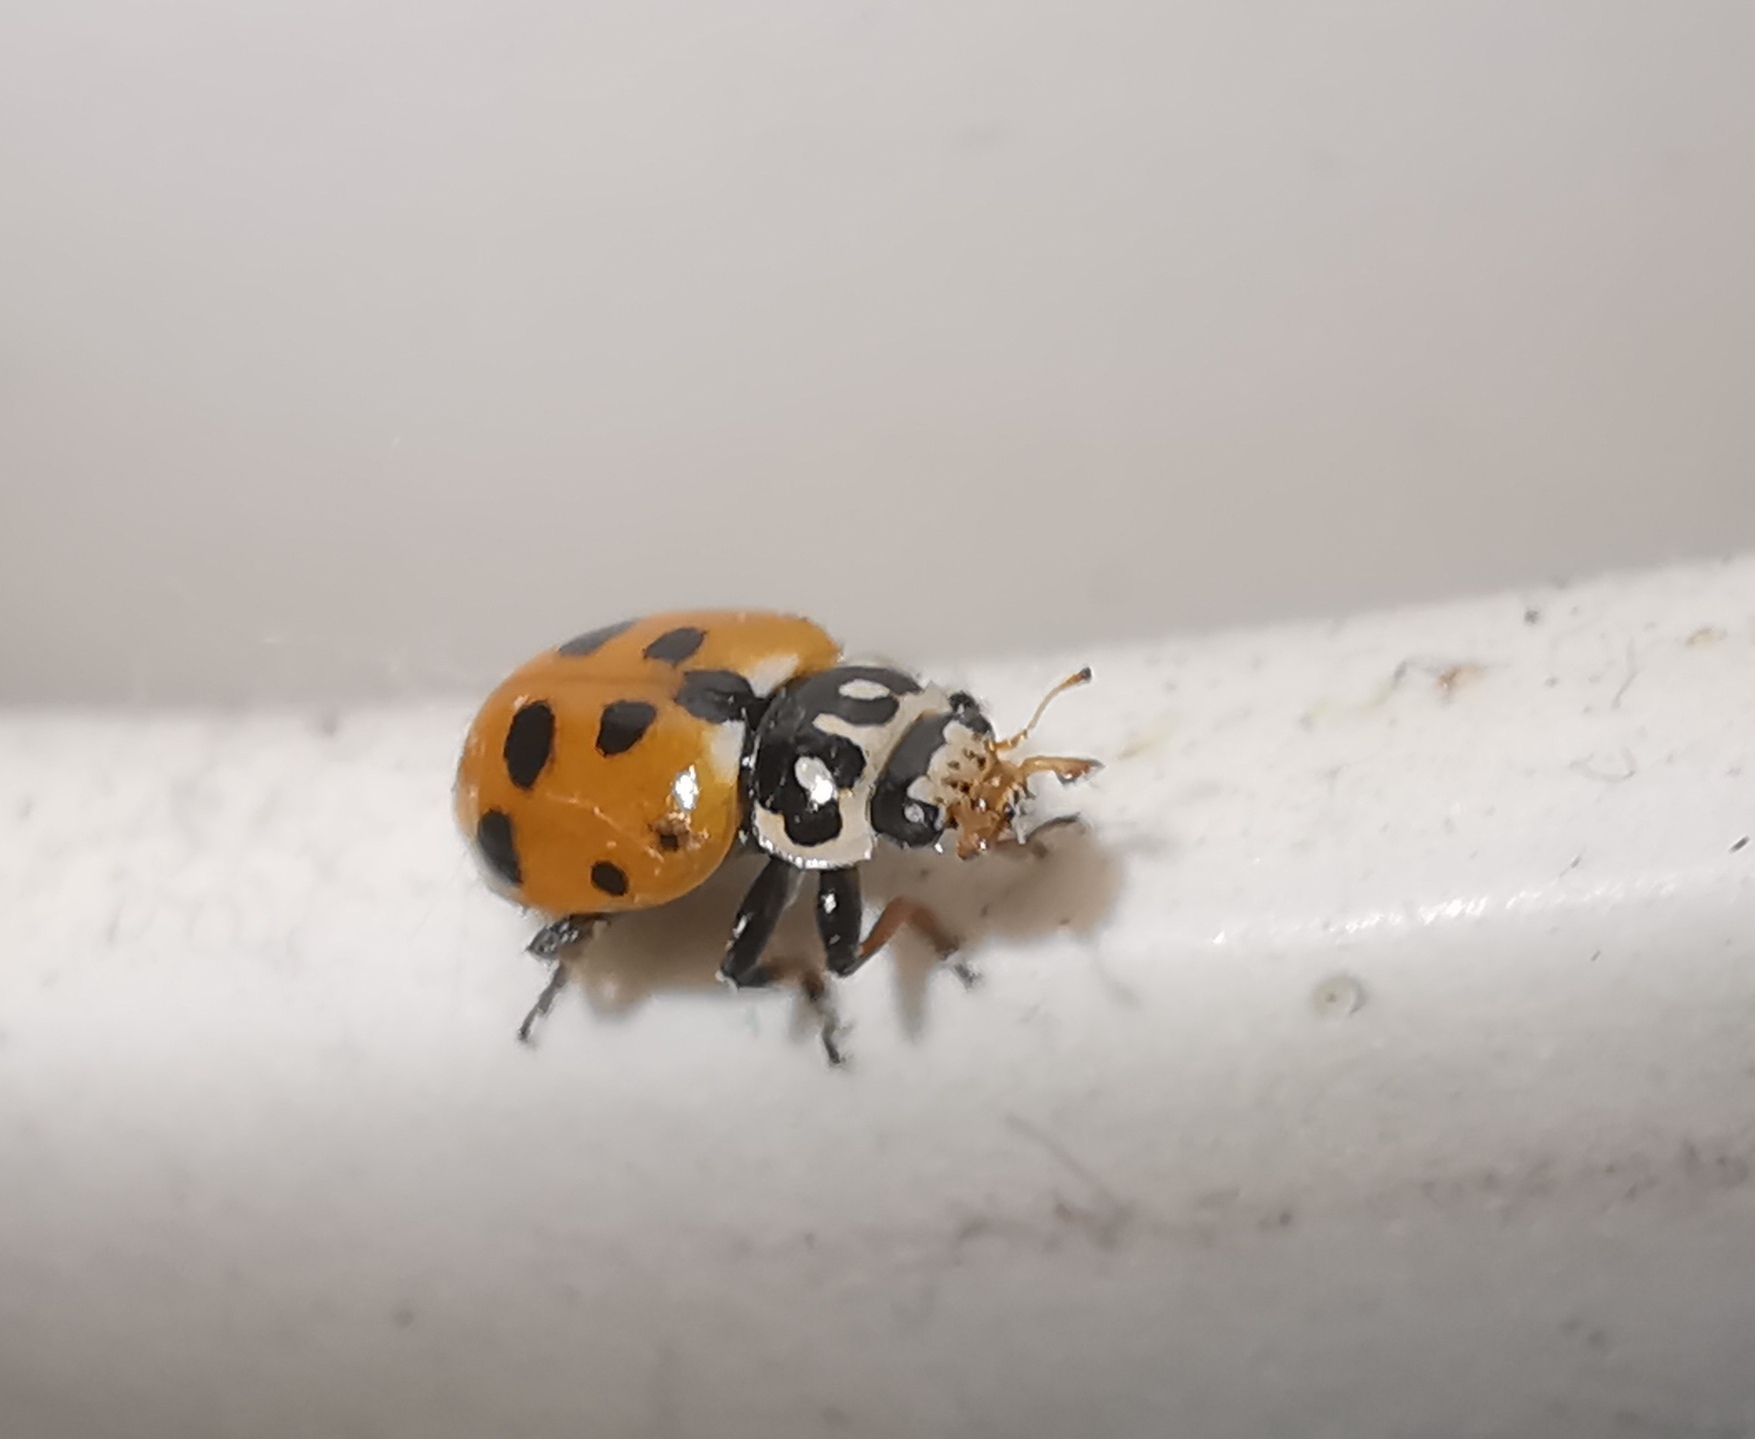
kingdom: Animalia
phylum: Arthropoda
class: Insecta
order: Coleoptera
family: Coccinellidae
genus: Hippodamia
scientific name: Hippodamia variegata
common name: Ladybird beetle
